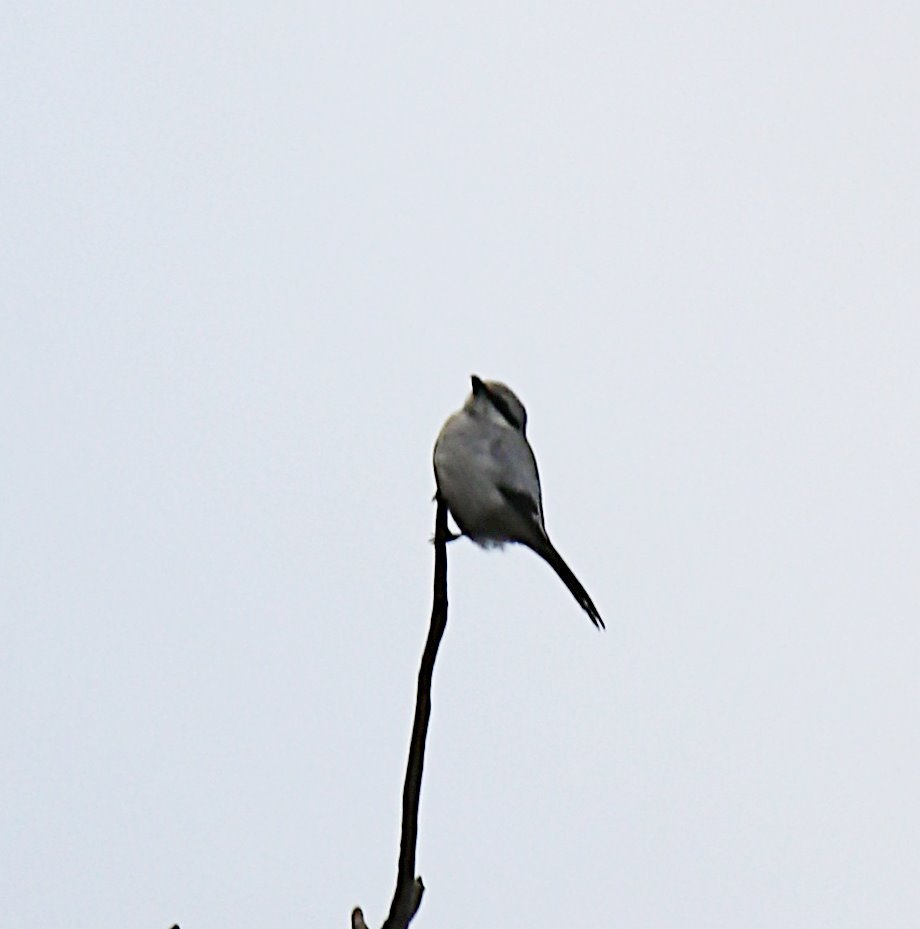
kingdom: Animalia
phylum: Chordata
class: Aves
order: Passeriformes
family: Laniidae
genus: Lanius
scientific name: Lanius excubitor
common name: Great grey shrike
